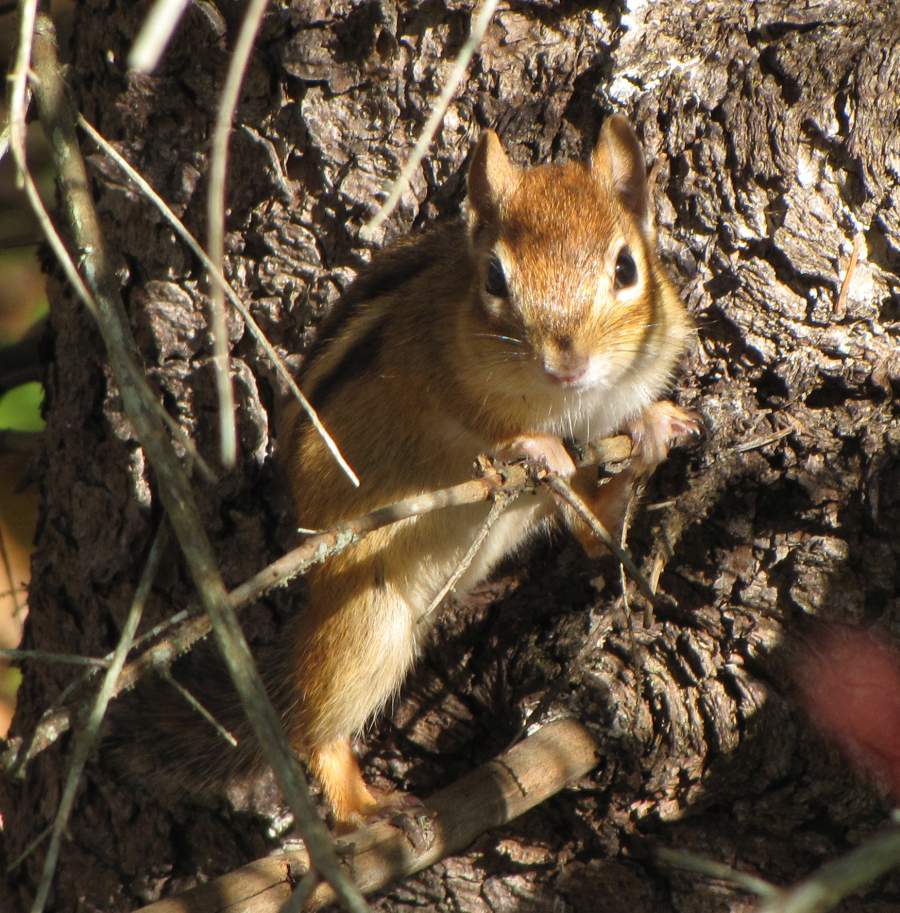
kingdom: Animalia
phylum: Chordata
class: Mammalia
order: Rodentia
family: Sciuridae
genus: Tamias
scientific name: Tamias striatus
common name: Eastern chipmunk
